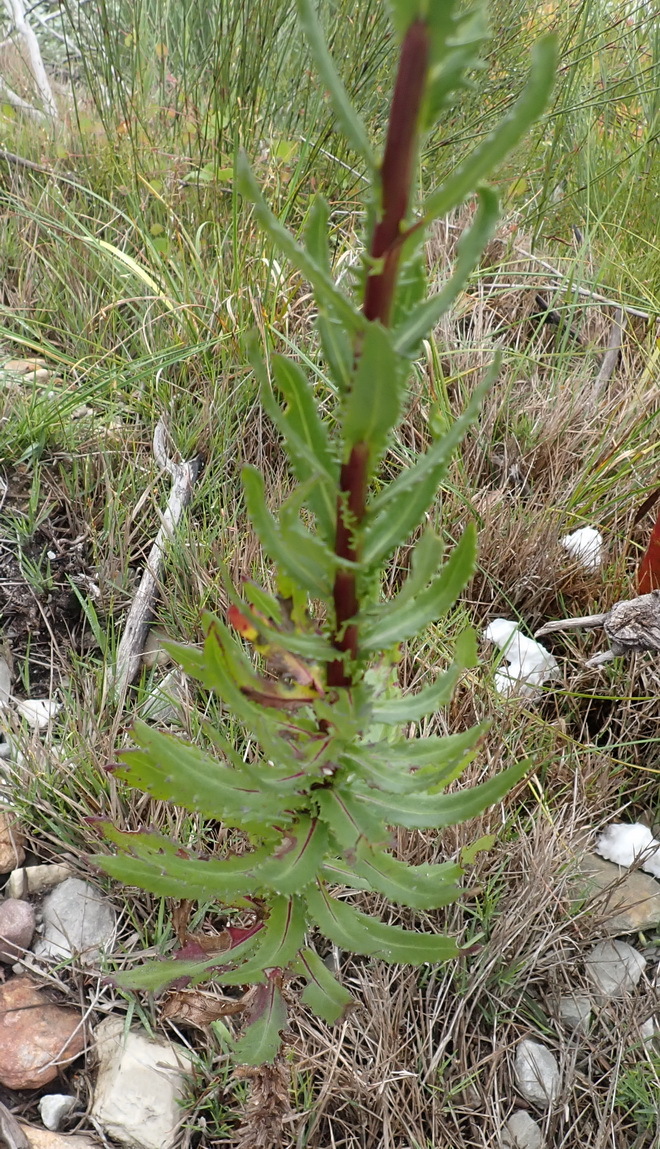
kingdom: Plantae
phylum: Tracheophyta
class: Magnoliopsida
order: Asterales
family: Asteraceae
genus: Senecio
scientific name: Senecio glastifolius
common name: Woad-leaved ragwort
